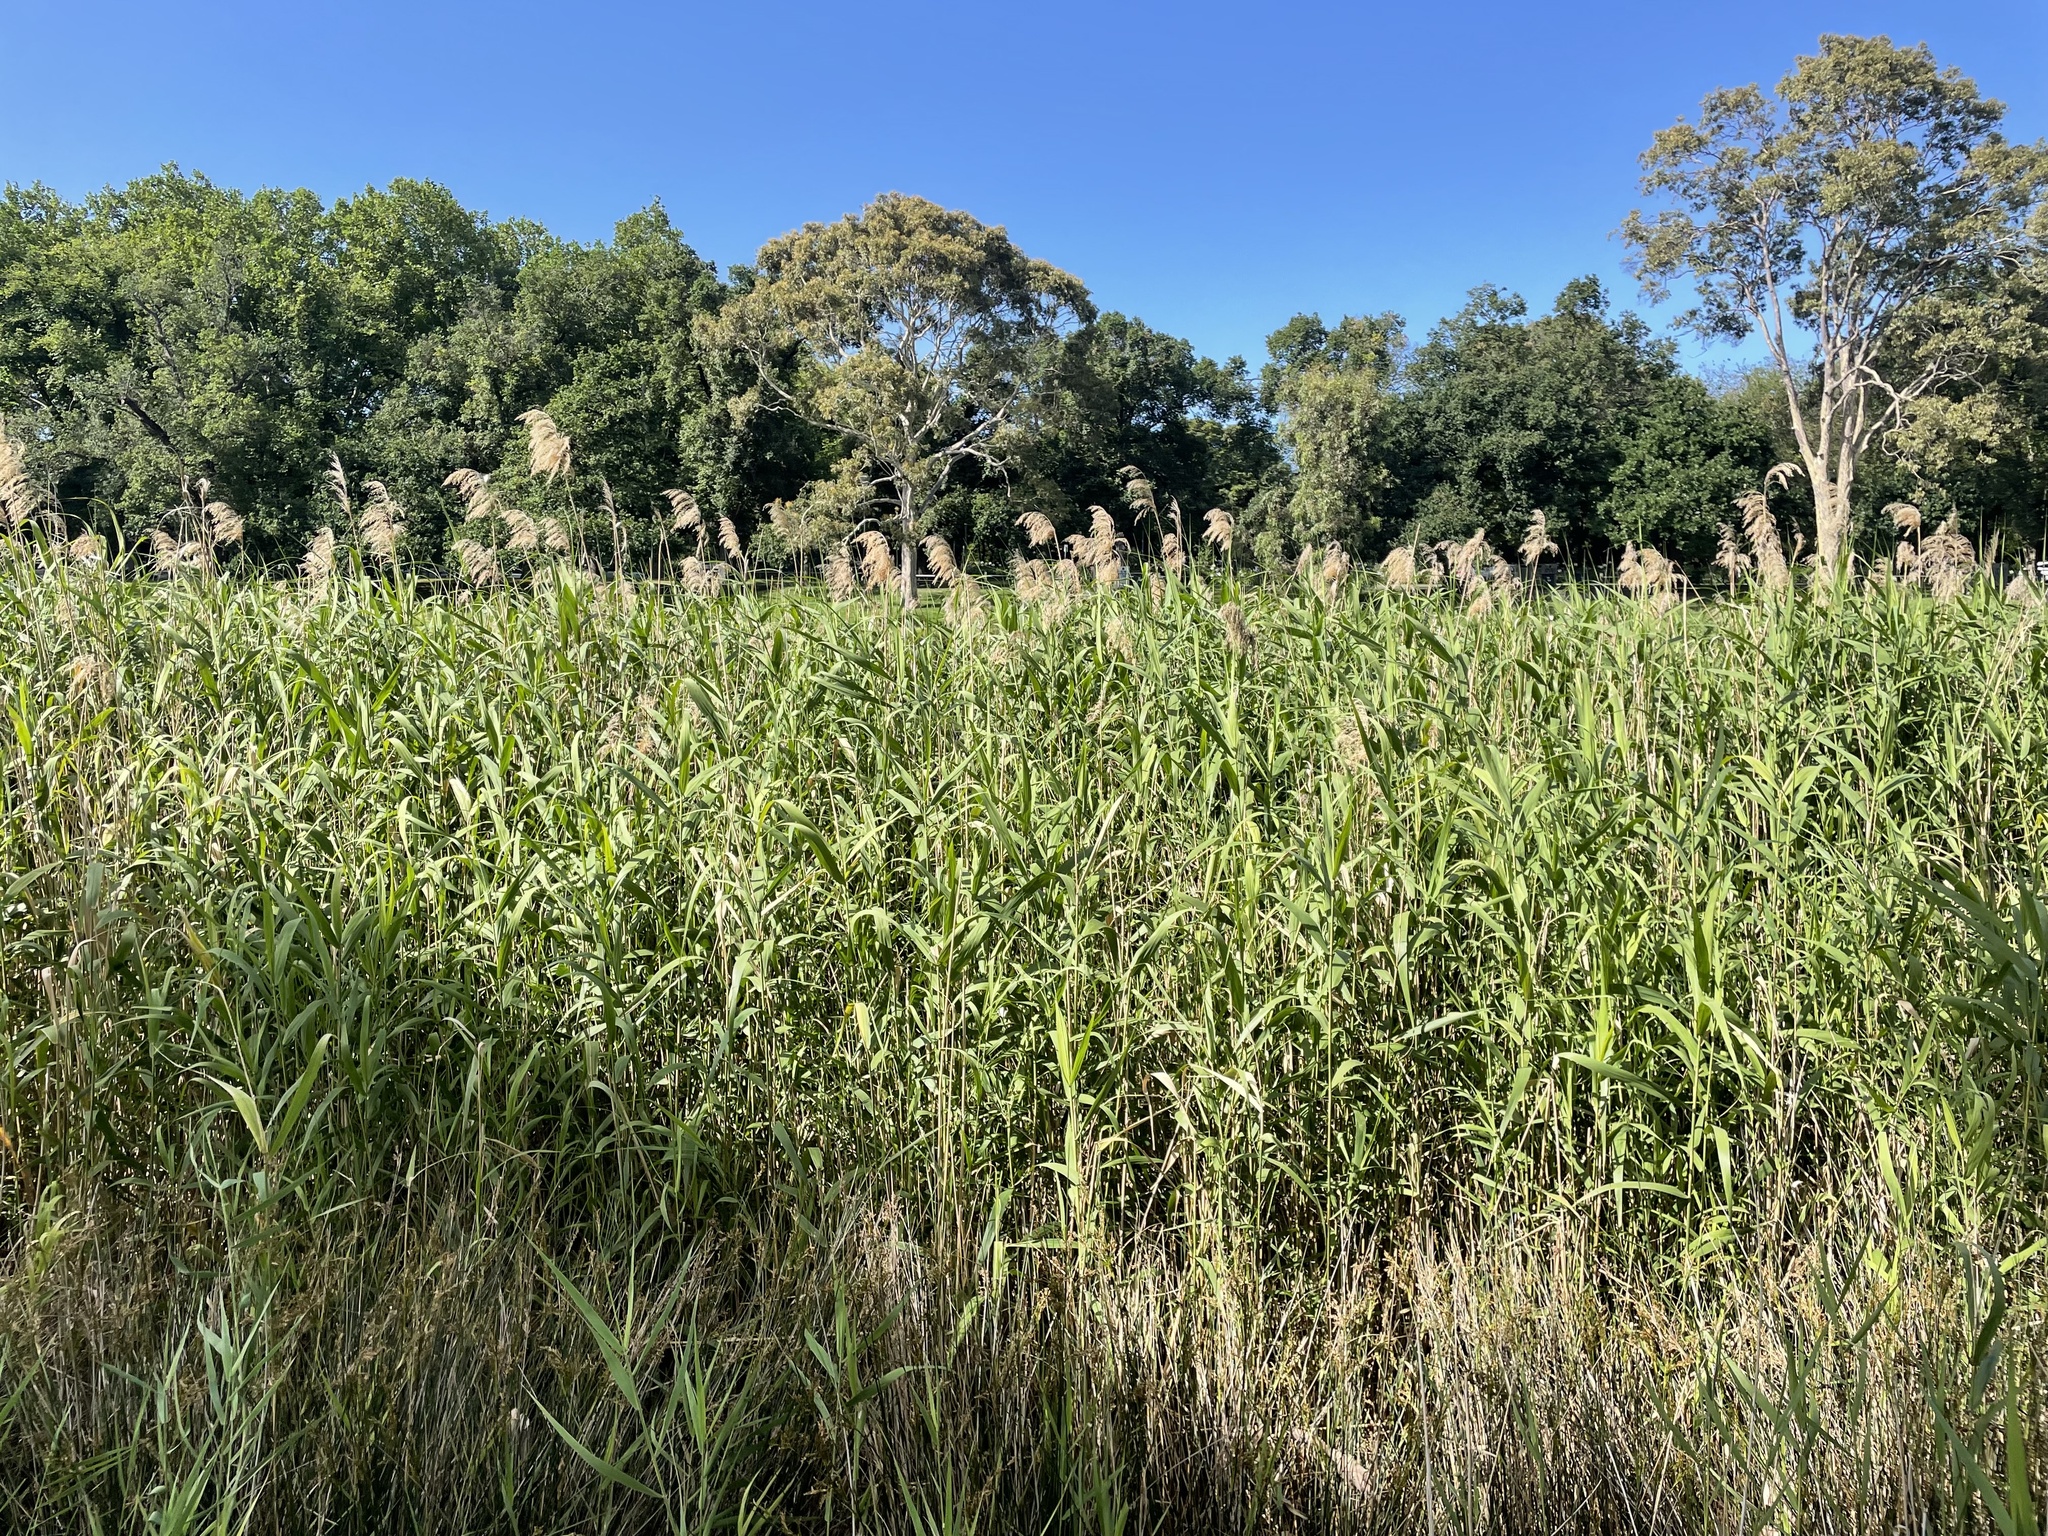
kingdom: Plantae
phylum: Tracheophyta
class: Liliopsida
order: Poales
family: Poaceae
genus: Phragmites
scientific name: Phragmites australis
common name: Common reed
